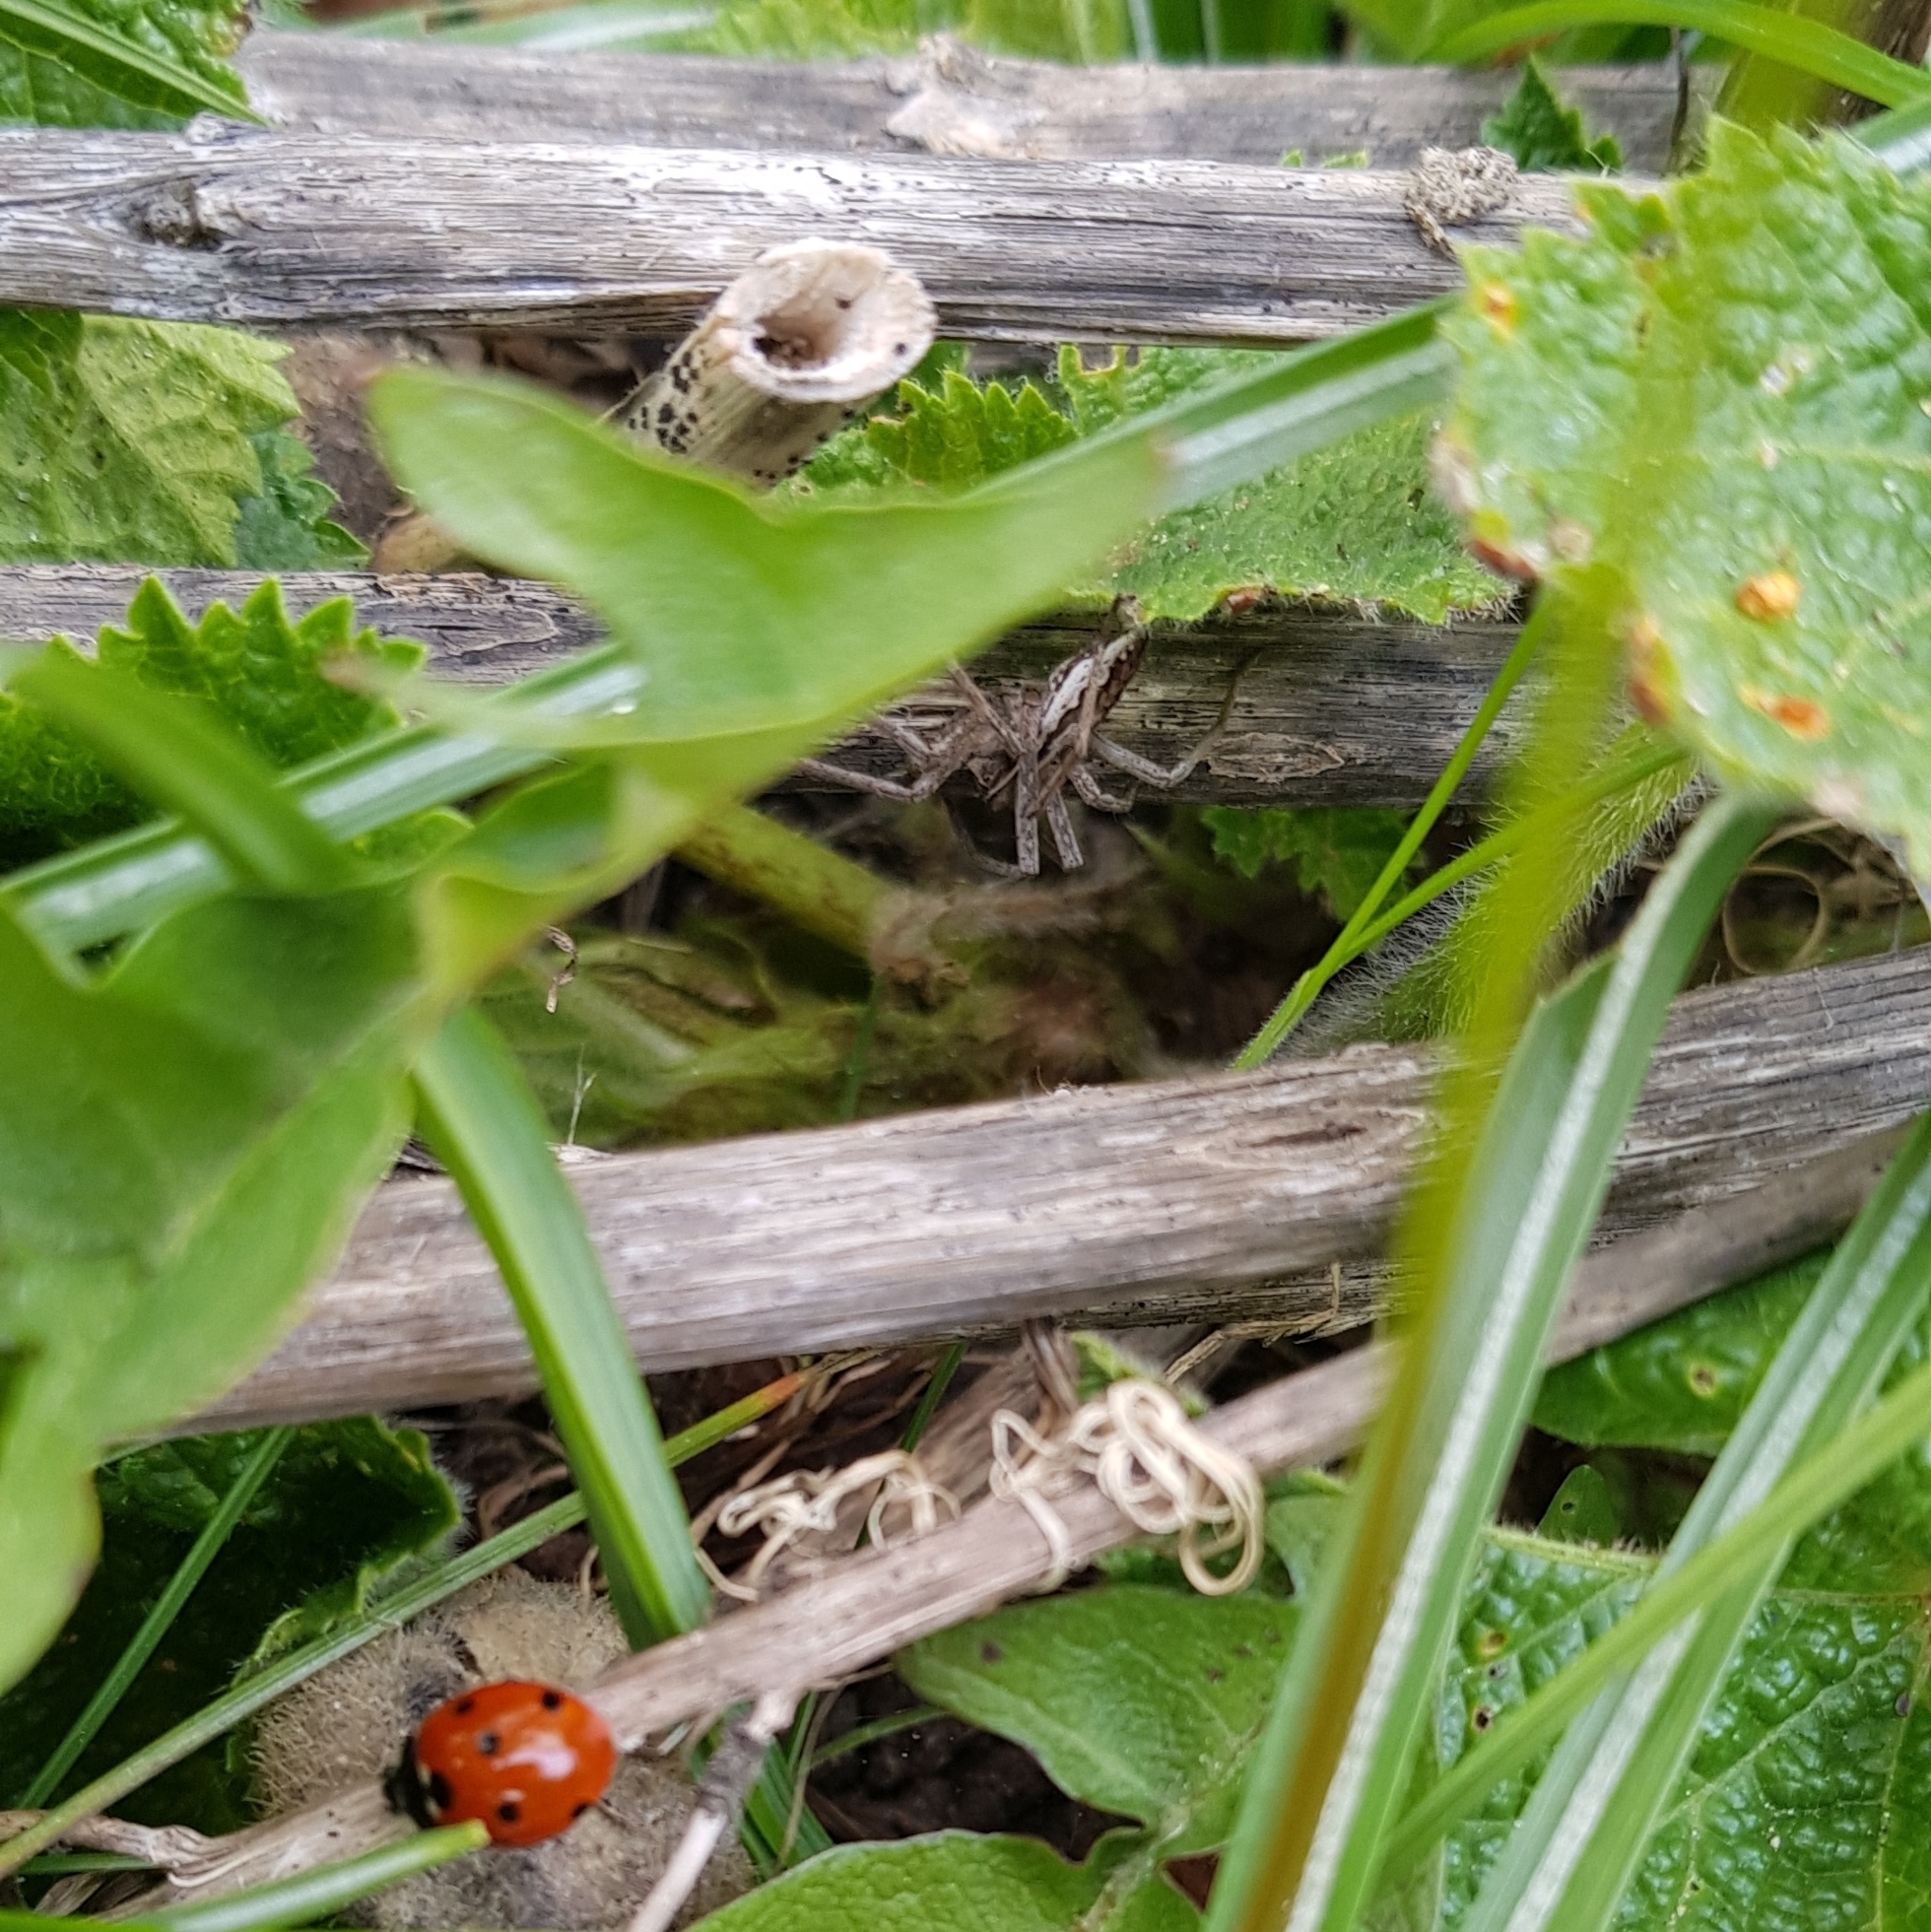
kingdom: Animalia
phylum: Arthropoda
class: Arachnida
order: Araneae
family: Pisauridae
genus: Pisaura
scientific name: Pisaura mirabilis
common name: Tent spider
